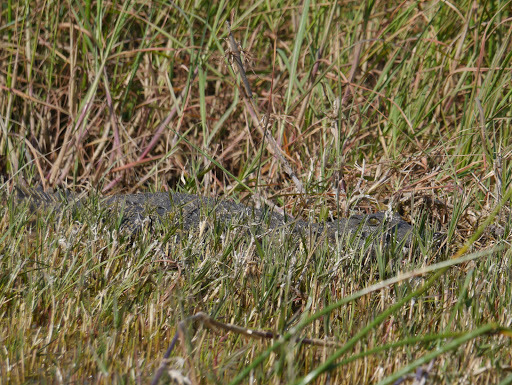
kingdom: Animalia
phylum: Chordata
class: Crocodylia
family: Crocodylidae
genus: Crocodylus
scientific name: Crocodylus niloticus
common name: Nile crocodile
